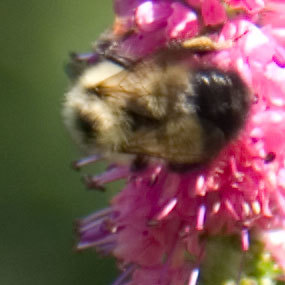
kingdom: Animalia
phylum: Arthropoda
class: Insecta
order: Hymenoptera
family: Apidae
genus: Pyrobombus
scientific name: Pyrobombus
